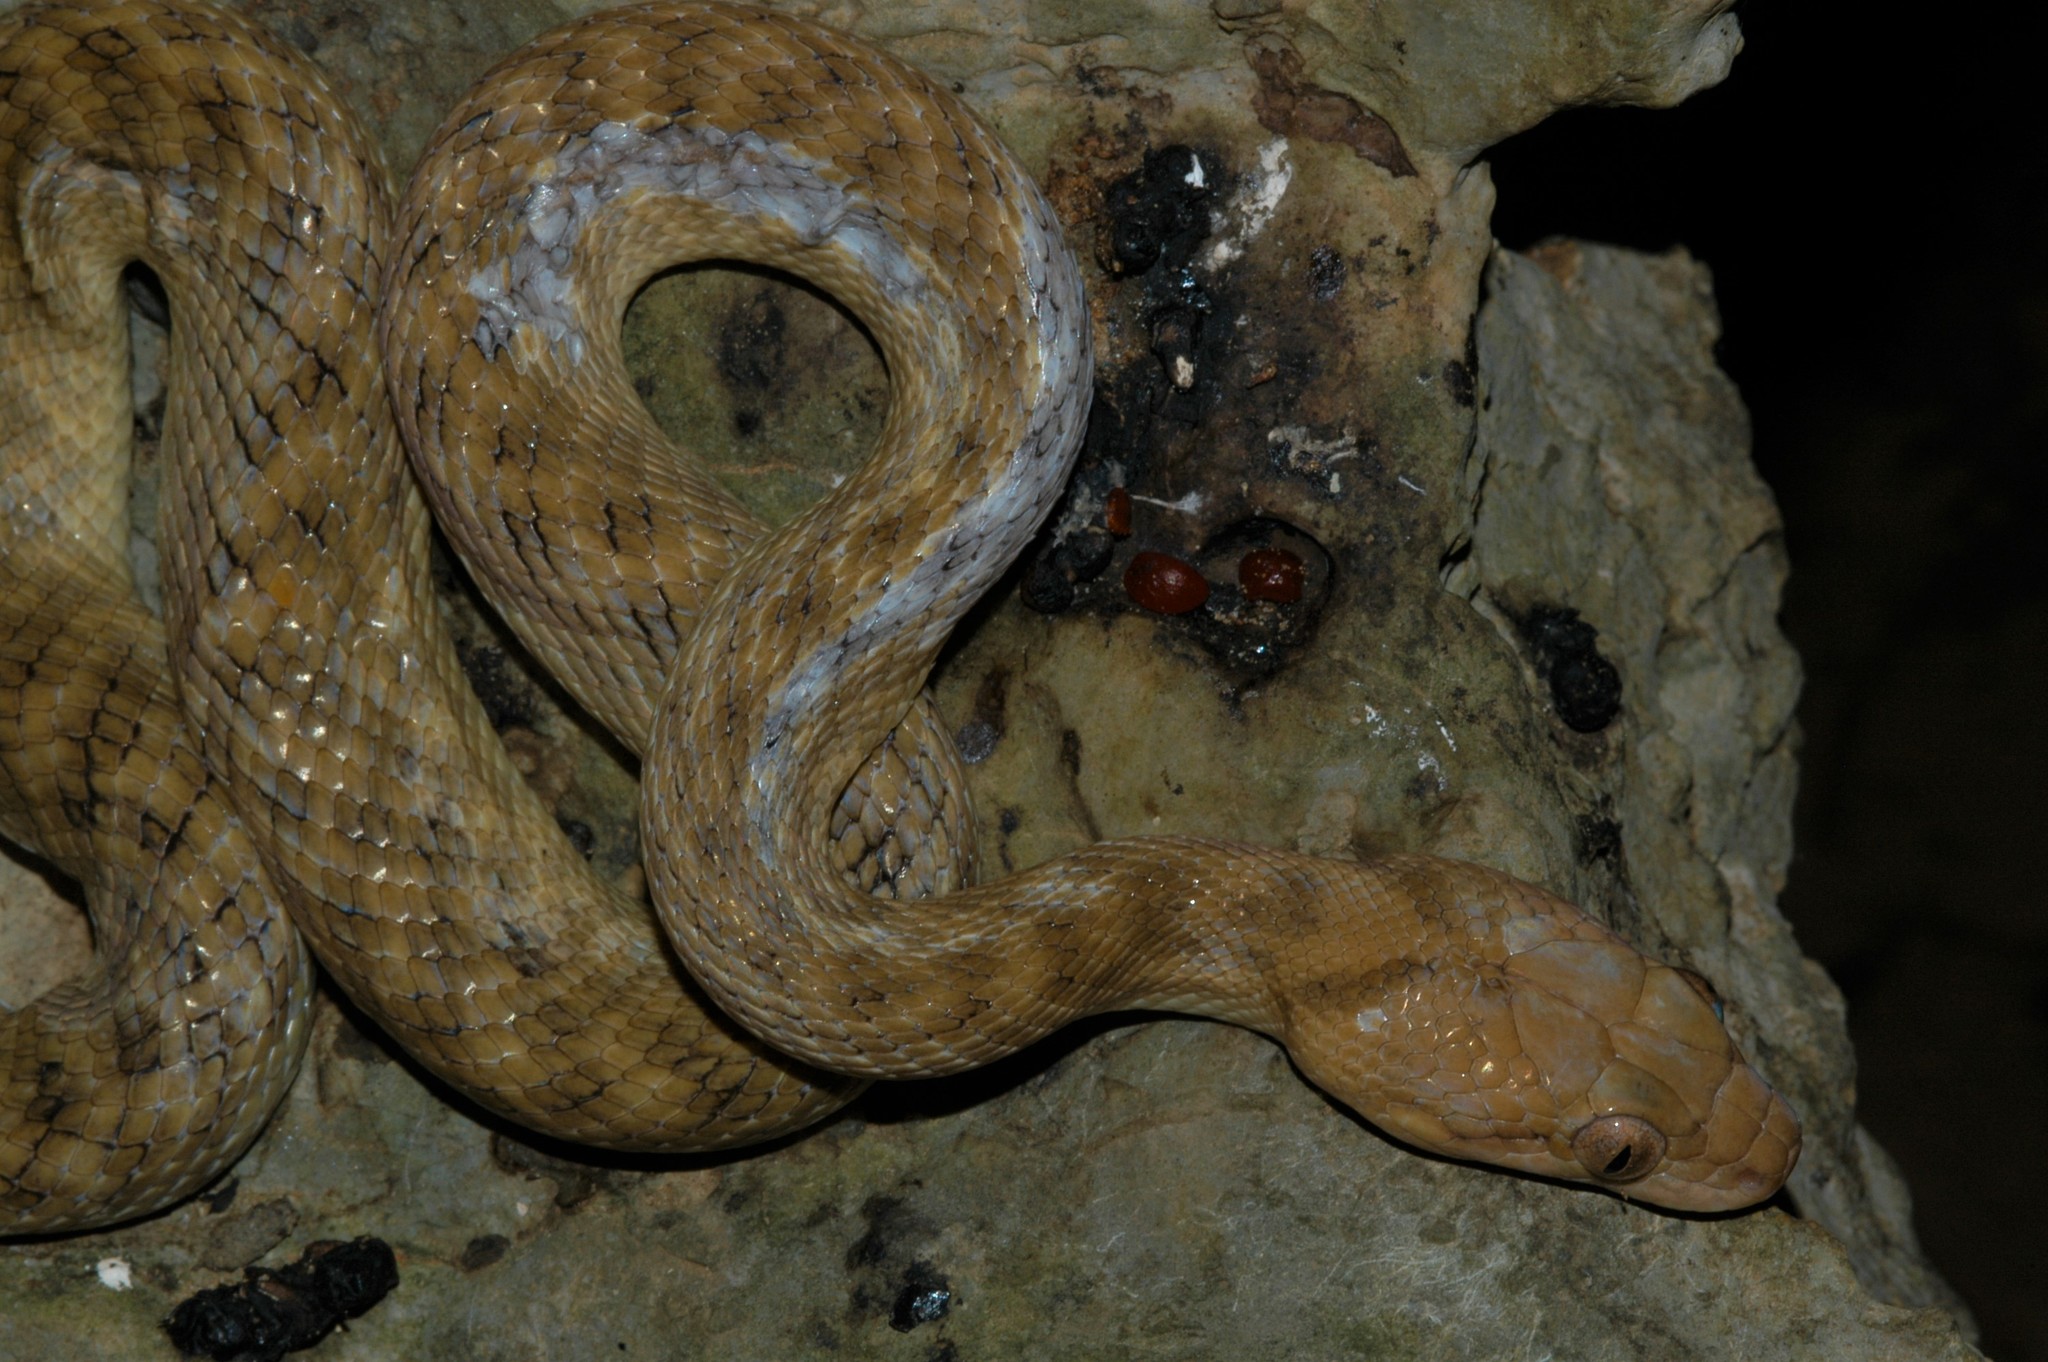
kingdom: Animalia
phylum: Chordata
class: Squamata
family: Pseudoxyrhophiidae
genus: Madagascarophis
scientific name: Madagascarophis colubrinus
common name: Madagascar night snake
